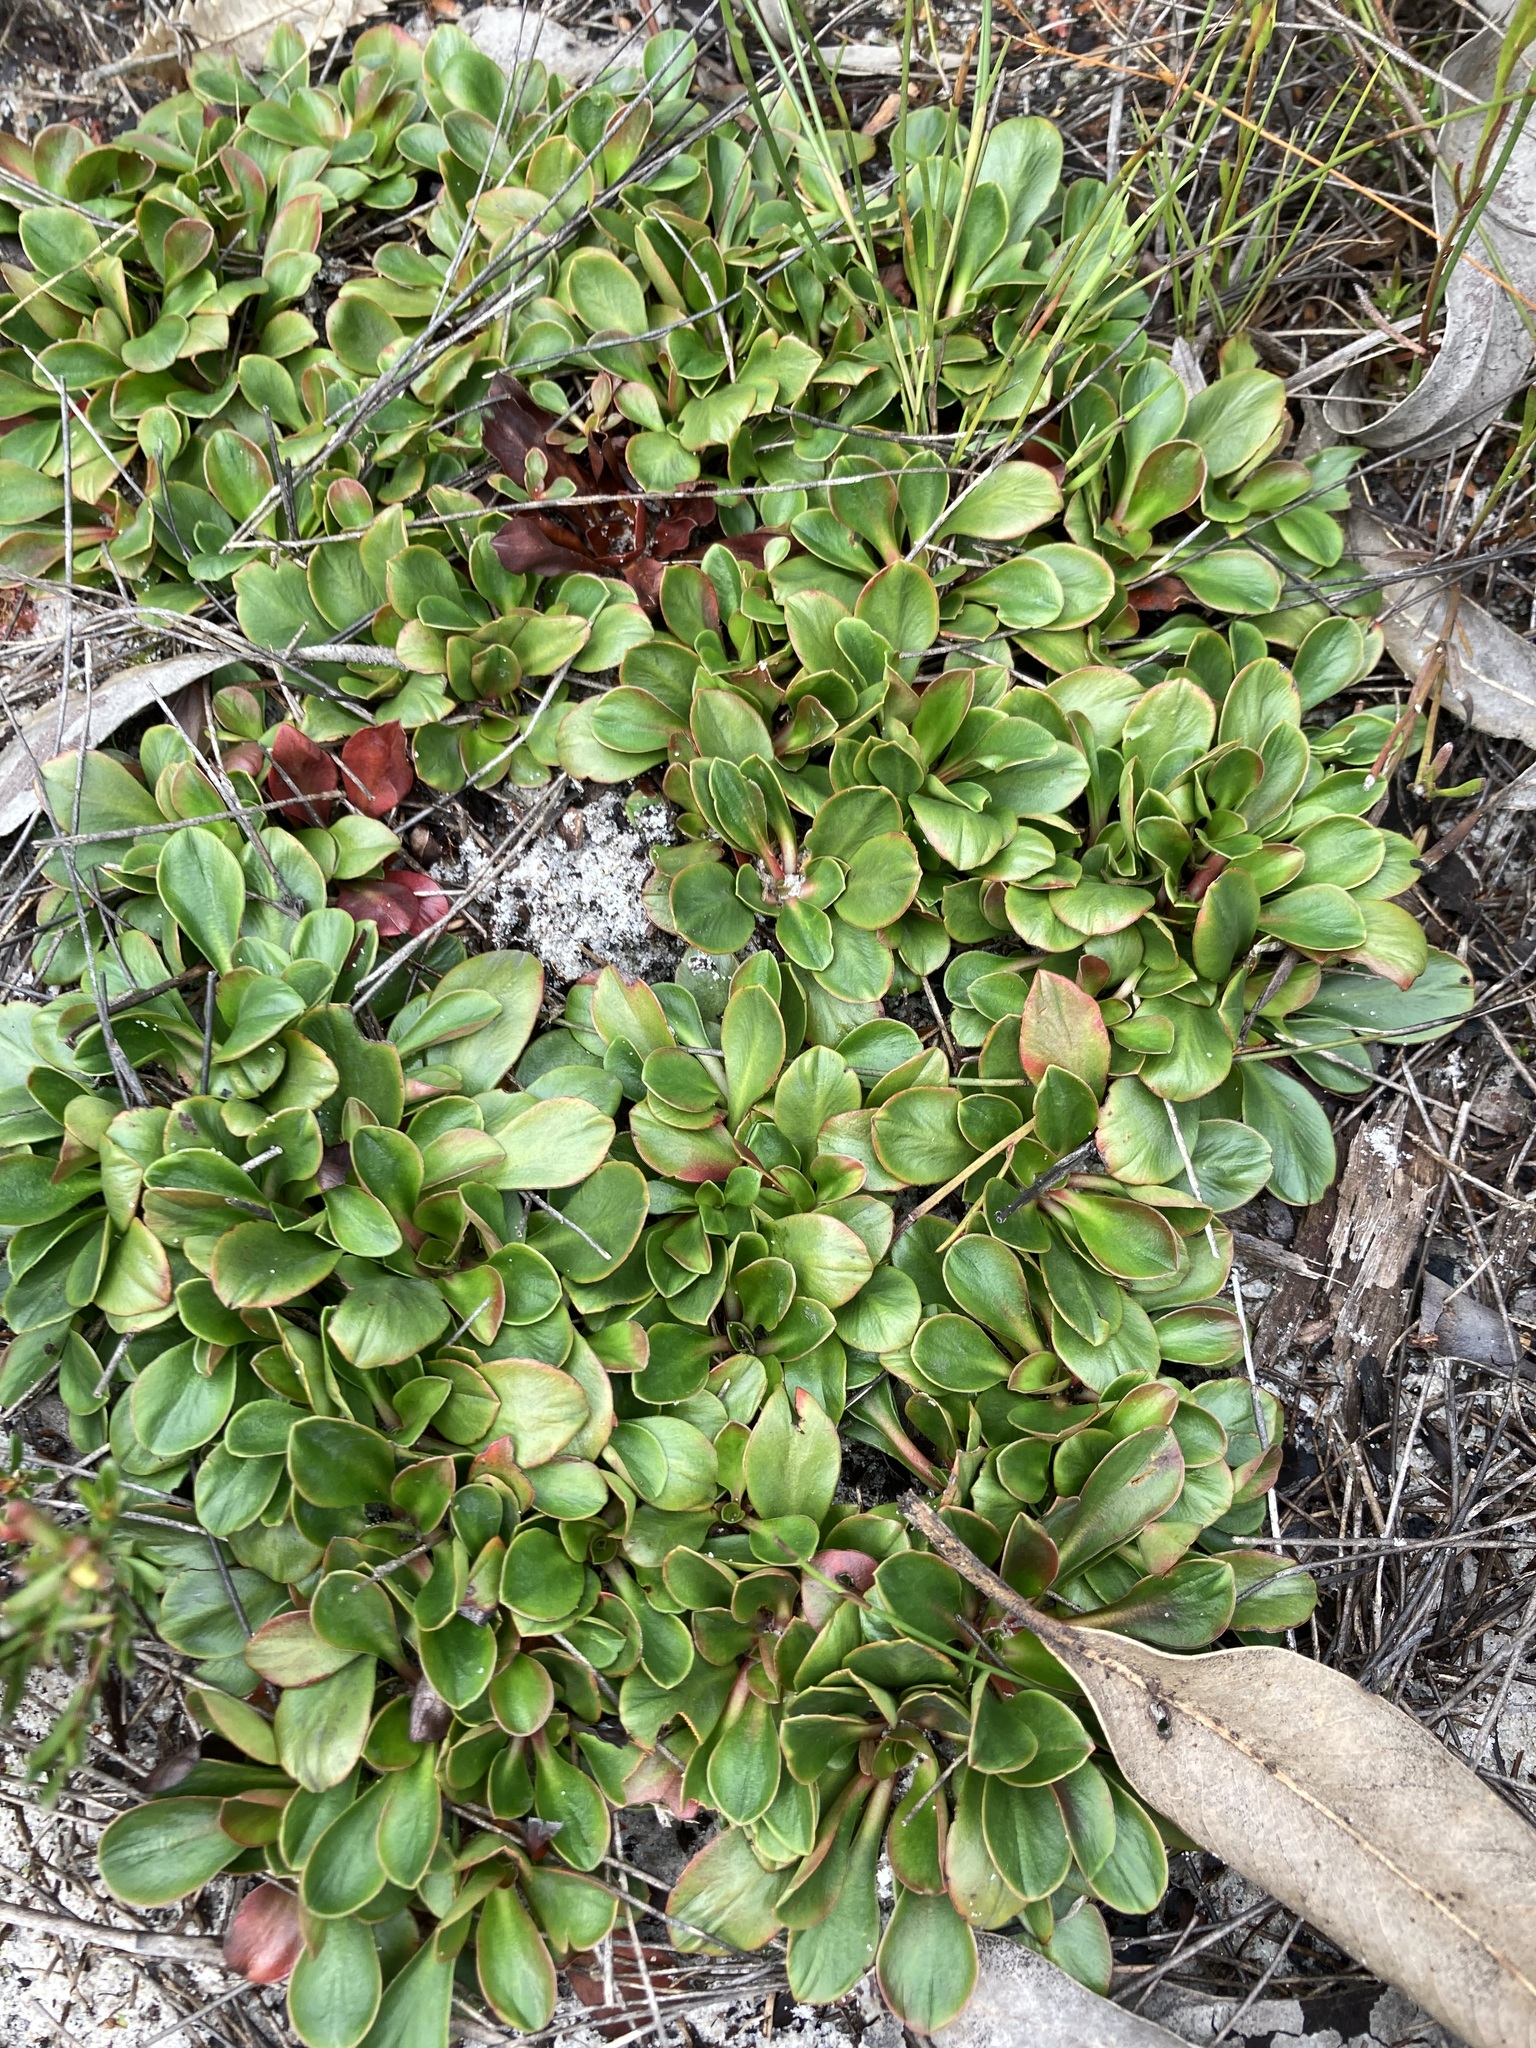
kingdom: Plantae
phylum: Tracheophyta
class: Magnoliopsida
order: Asterales
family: Stylidiaceae
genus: Stylidium
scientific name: Stylidium ornatum
